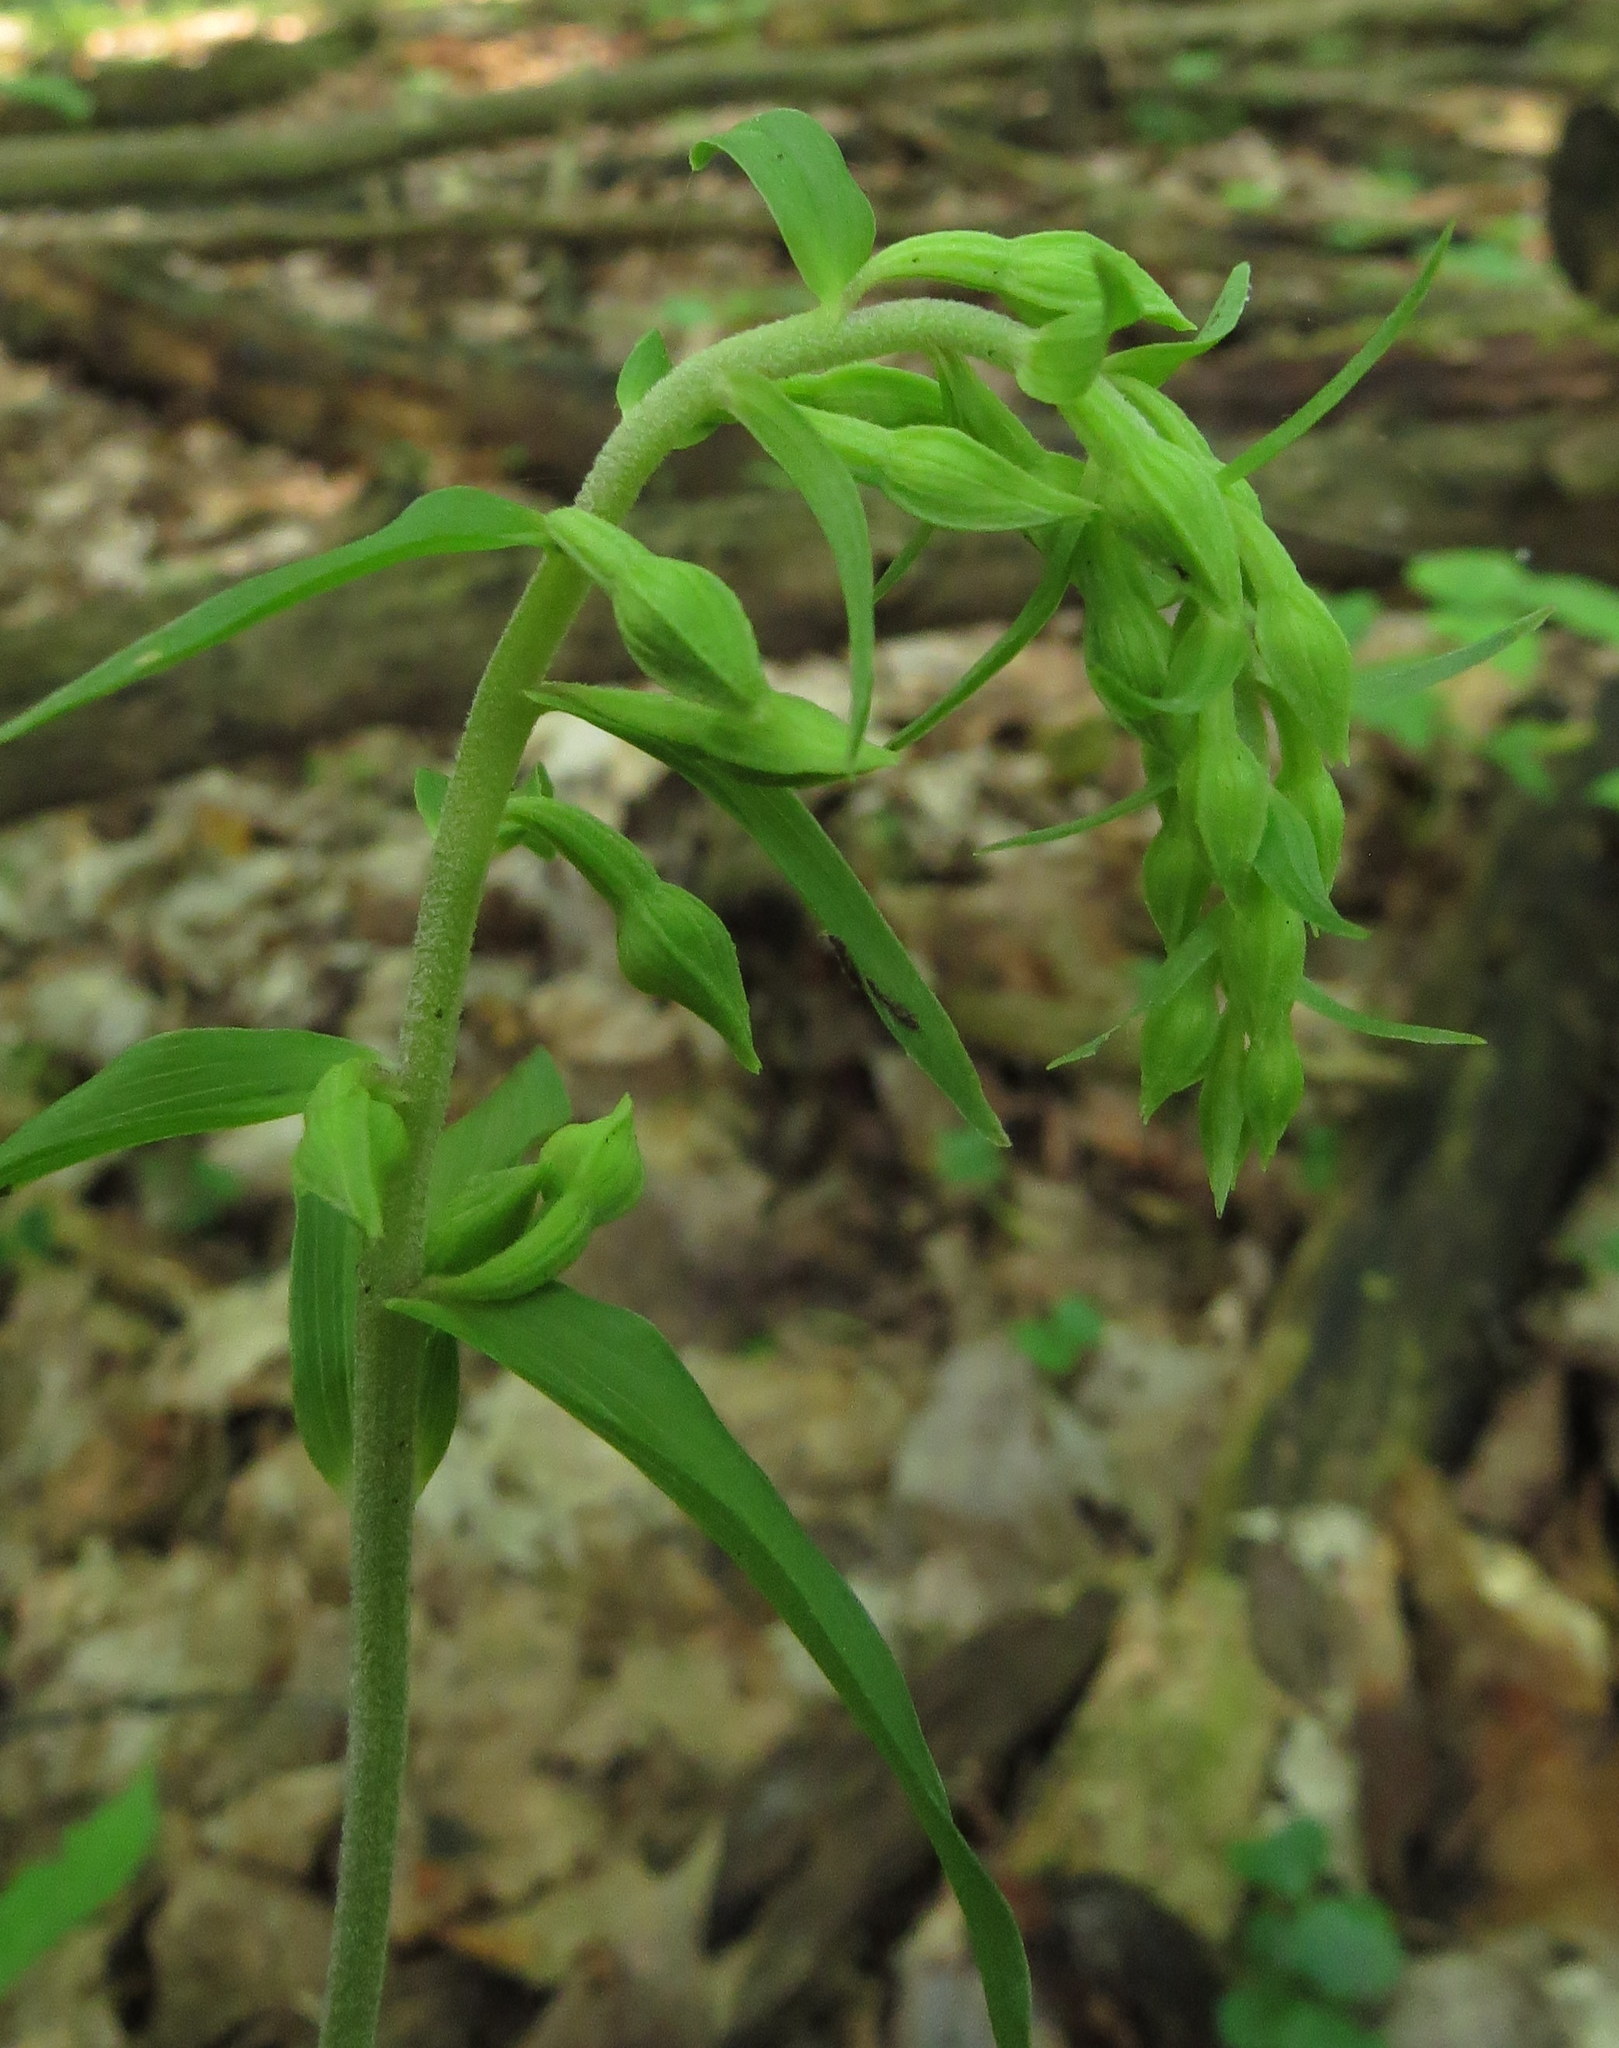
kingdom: Plantae
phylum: Tracheophyta
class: Liliopsida
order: Asparagales
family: Orchidaceae
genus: Epipactis
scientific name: Epipactis helleborine
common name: Broad-leaved helleborine
